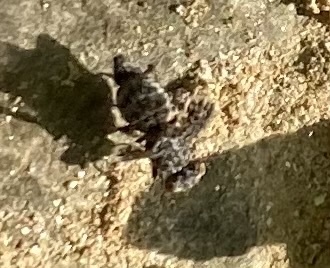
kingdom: Animalia
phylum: Arthropoda
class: Insecta
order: Diptera
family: Ulidiidae
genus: Callopistromyia
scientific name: Callopistromyia annulipes
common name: Peacock fly
